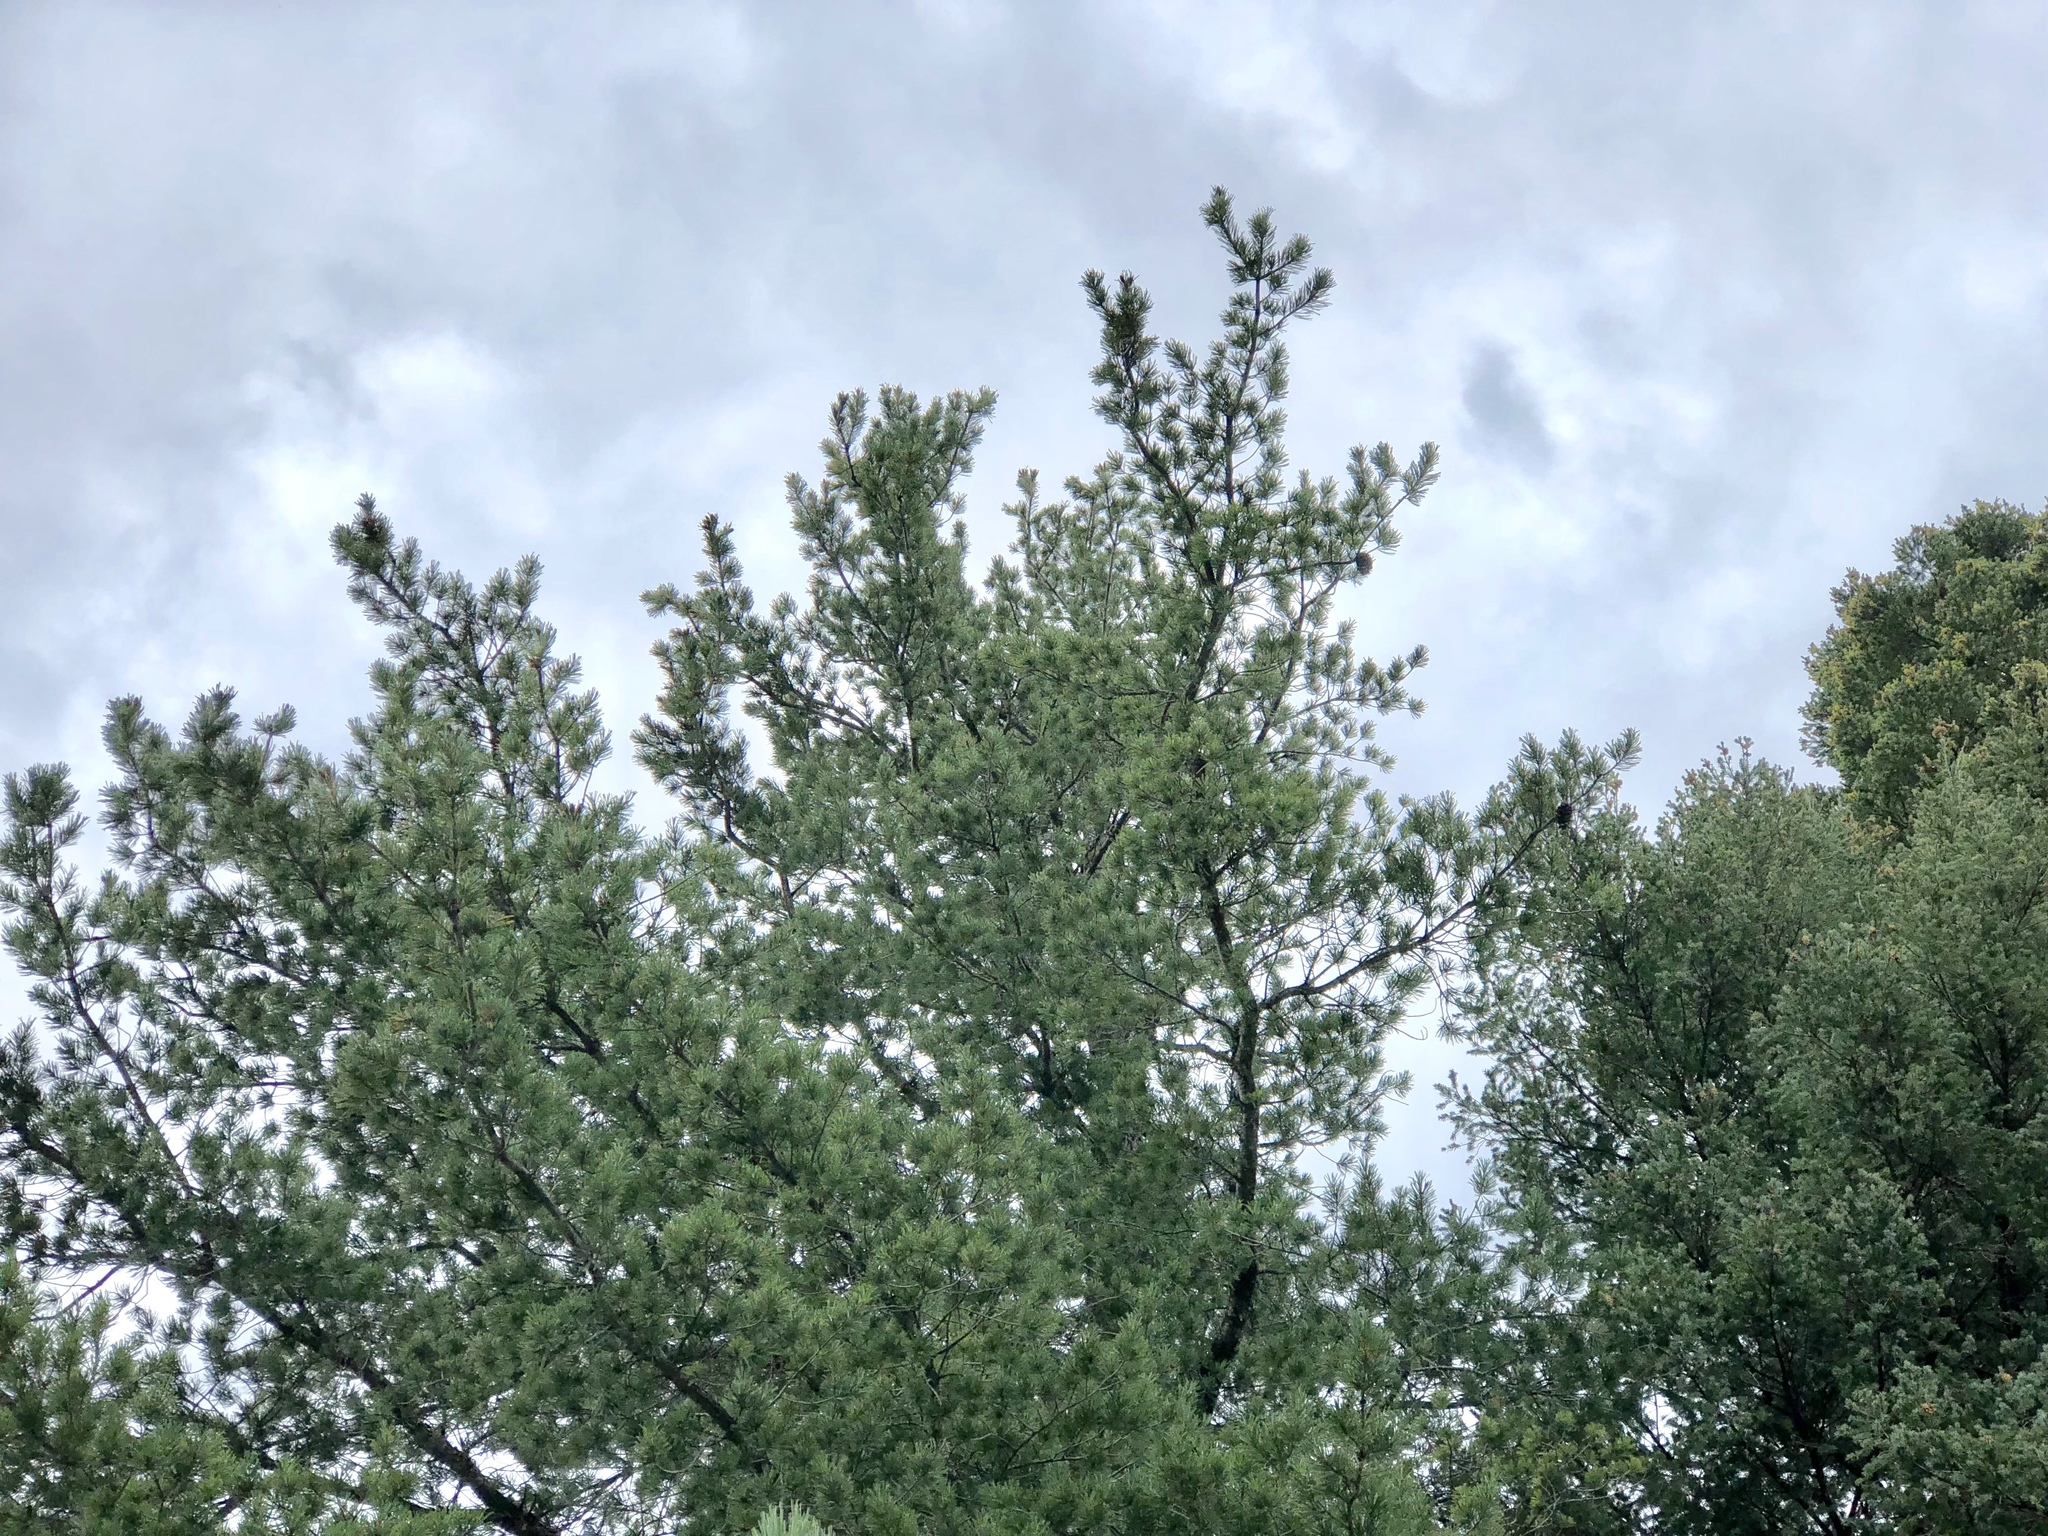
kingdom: Plantae
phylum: Tracheophyta
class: Pinopsida
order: Pinales
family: Pinaceae
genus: Pinus
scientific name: Pinus strobiformis
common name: Southwestern white pine
